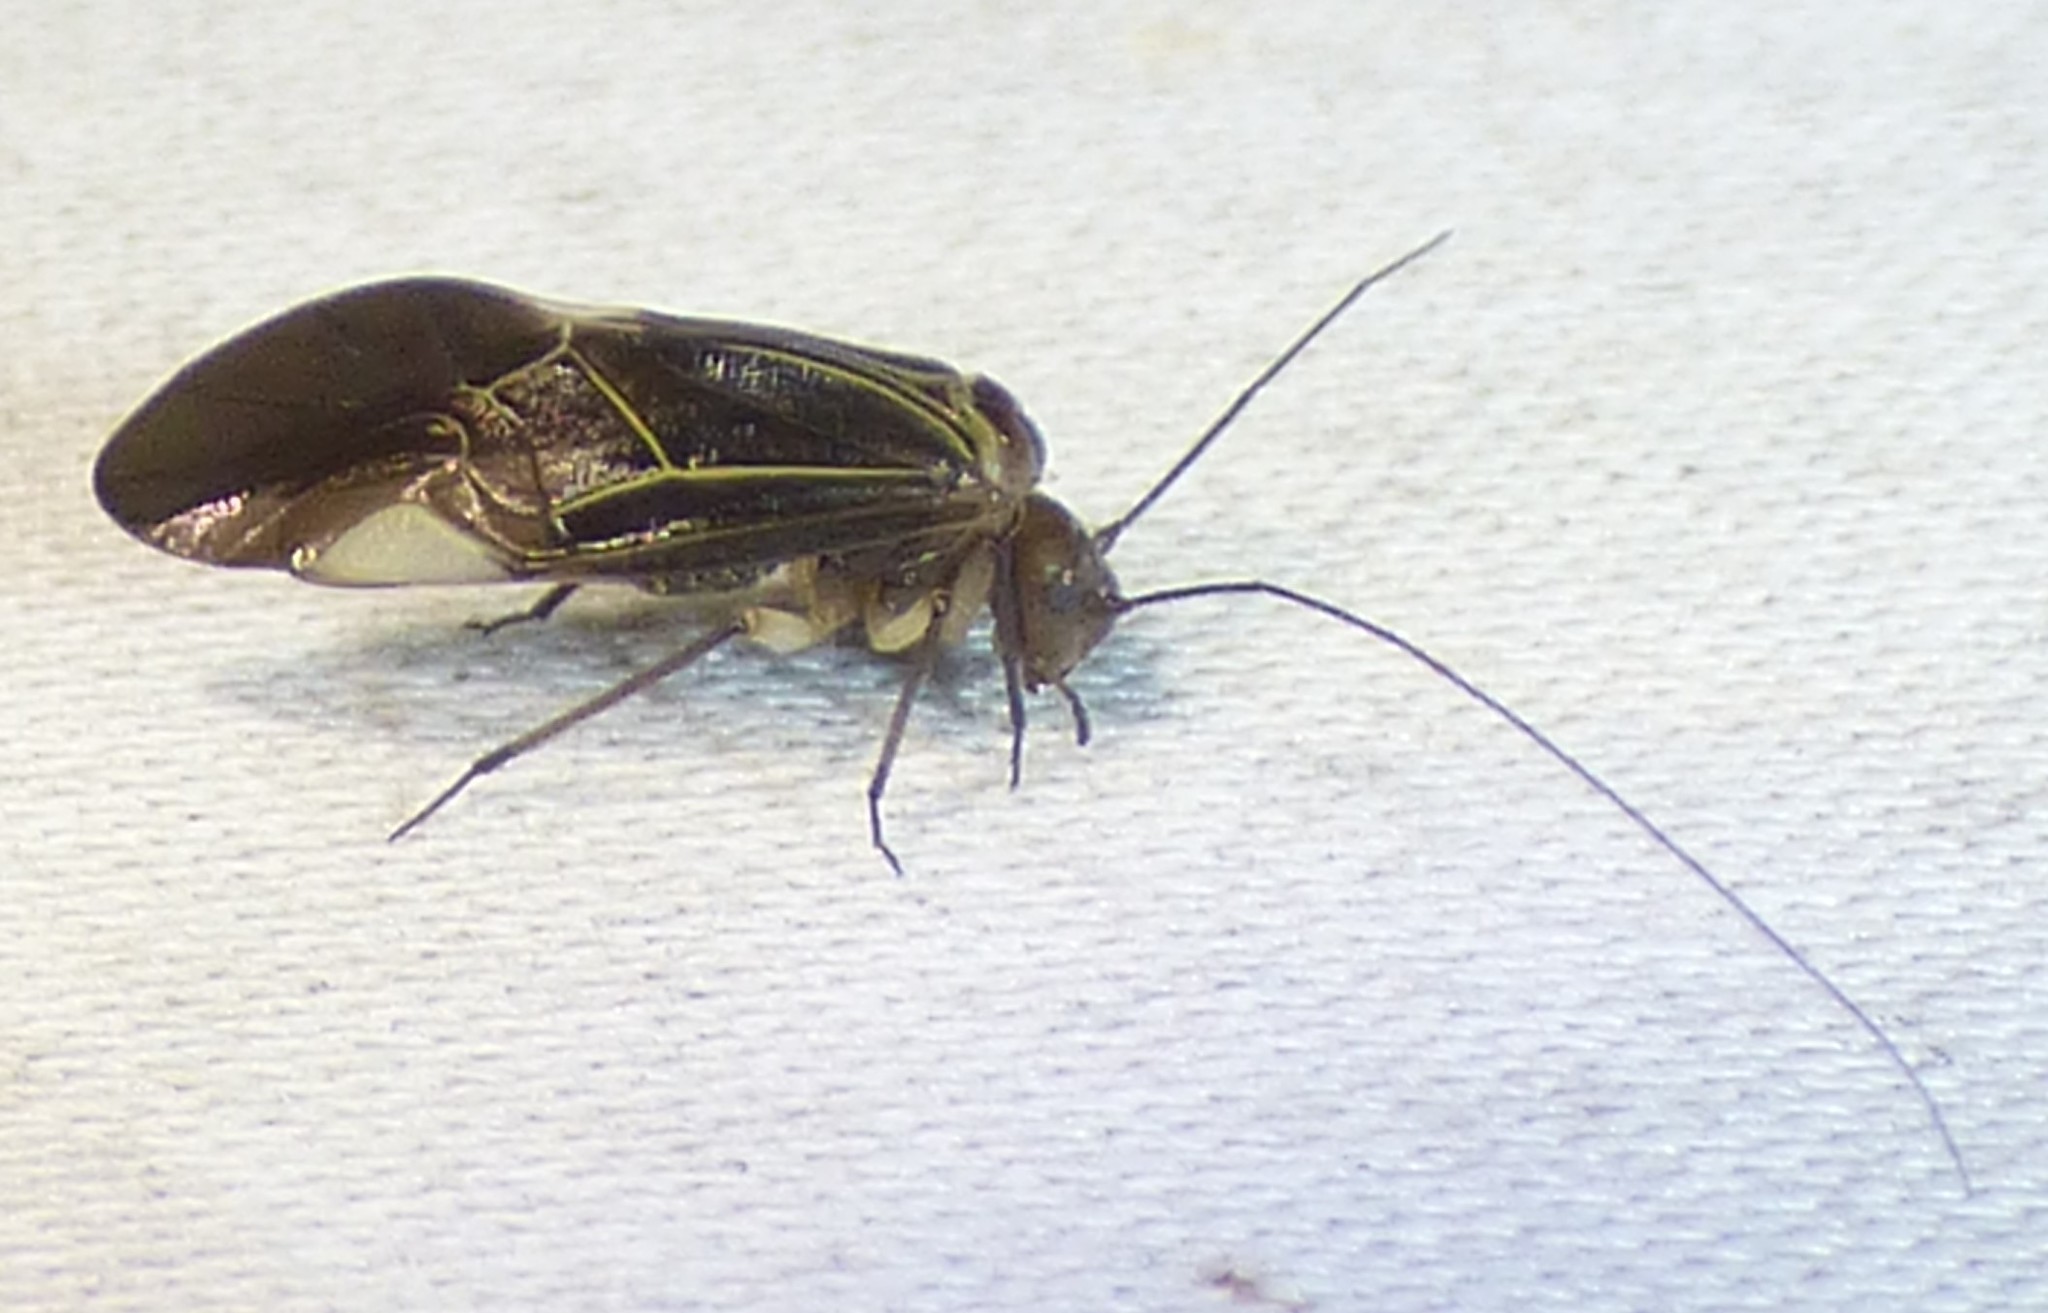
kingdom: Animalia
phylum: Arthropoda
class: Insecta
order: Psocodea
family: Psocidae
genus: Cerastipsocus
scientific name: Cerastipsocus venosus
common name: Tree cattle
